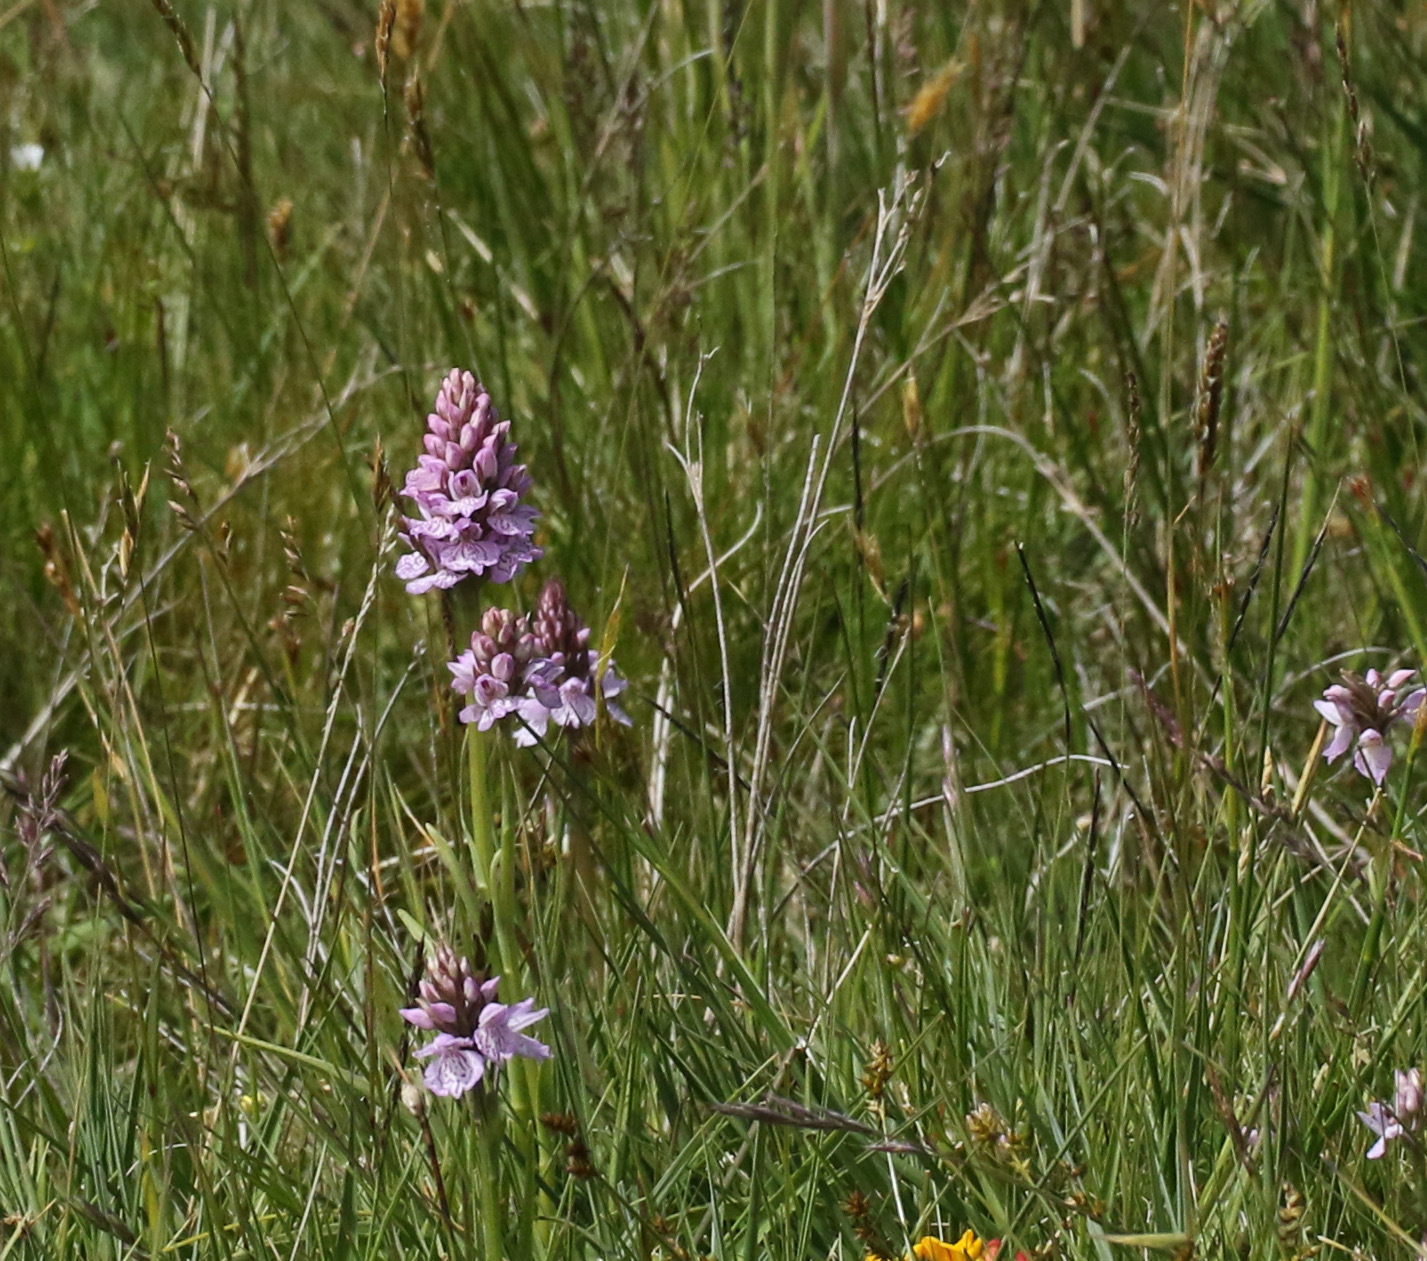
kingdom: Plantae
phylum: Tracheophyta
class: Liliopsida
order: Asparagales
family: Orchidaceae
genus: Dactylorhiza
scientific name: Dactylorhiza maculata
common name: Heath spotted-orchid
